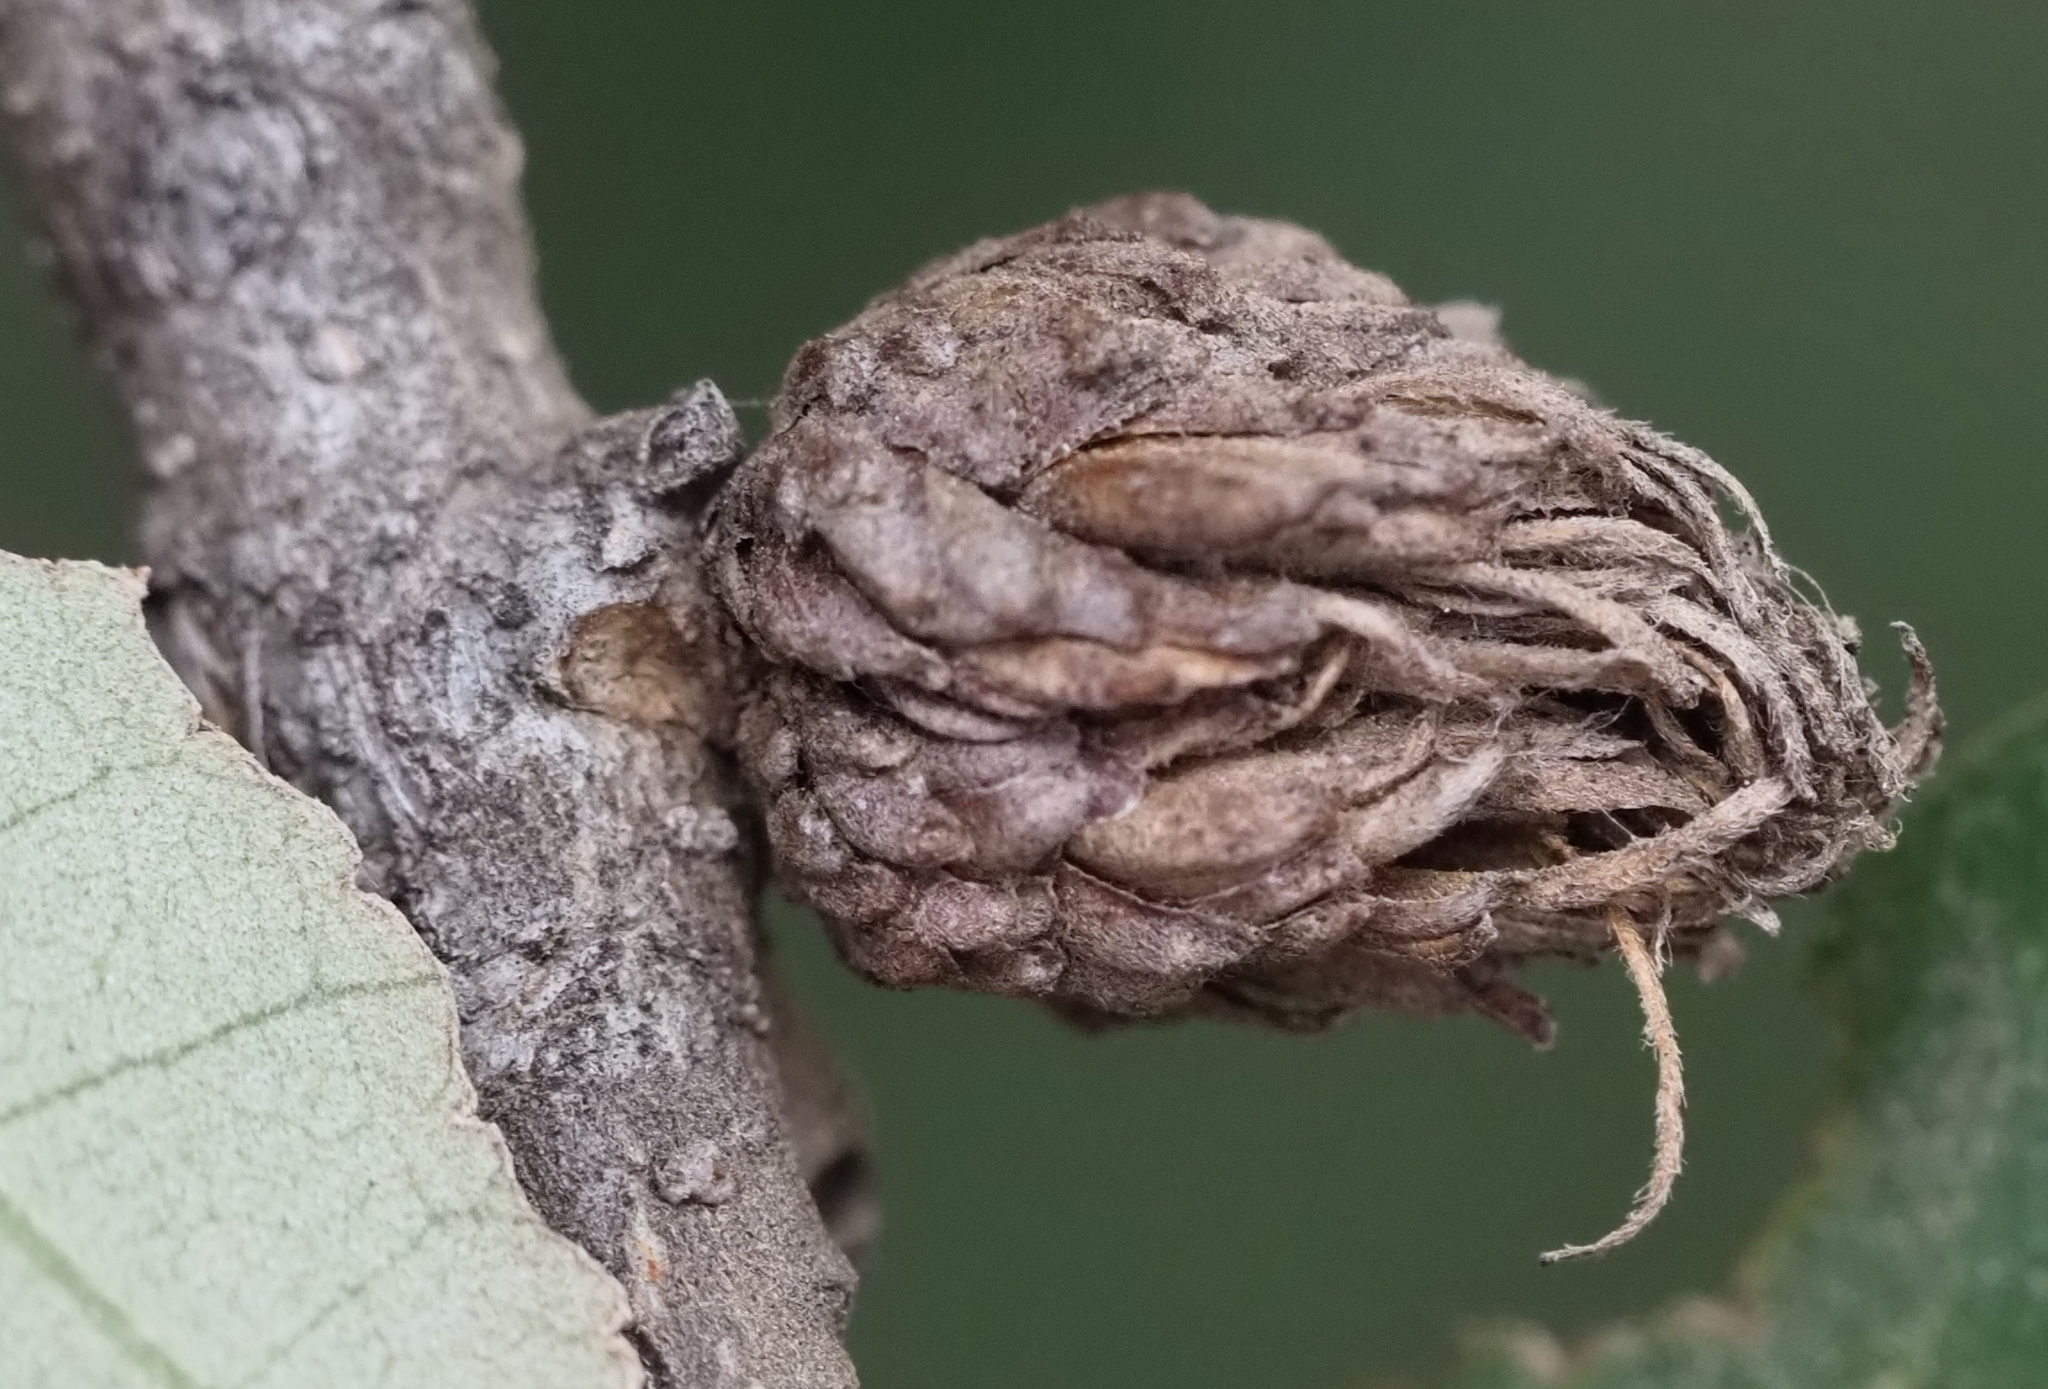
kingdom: Animalia
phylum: Arthropoda
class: Insecta
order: Hymenoptera
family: Cynipidae
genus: Andricus
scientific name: Andricus quercusfoliatus
